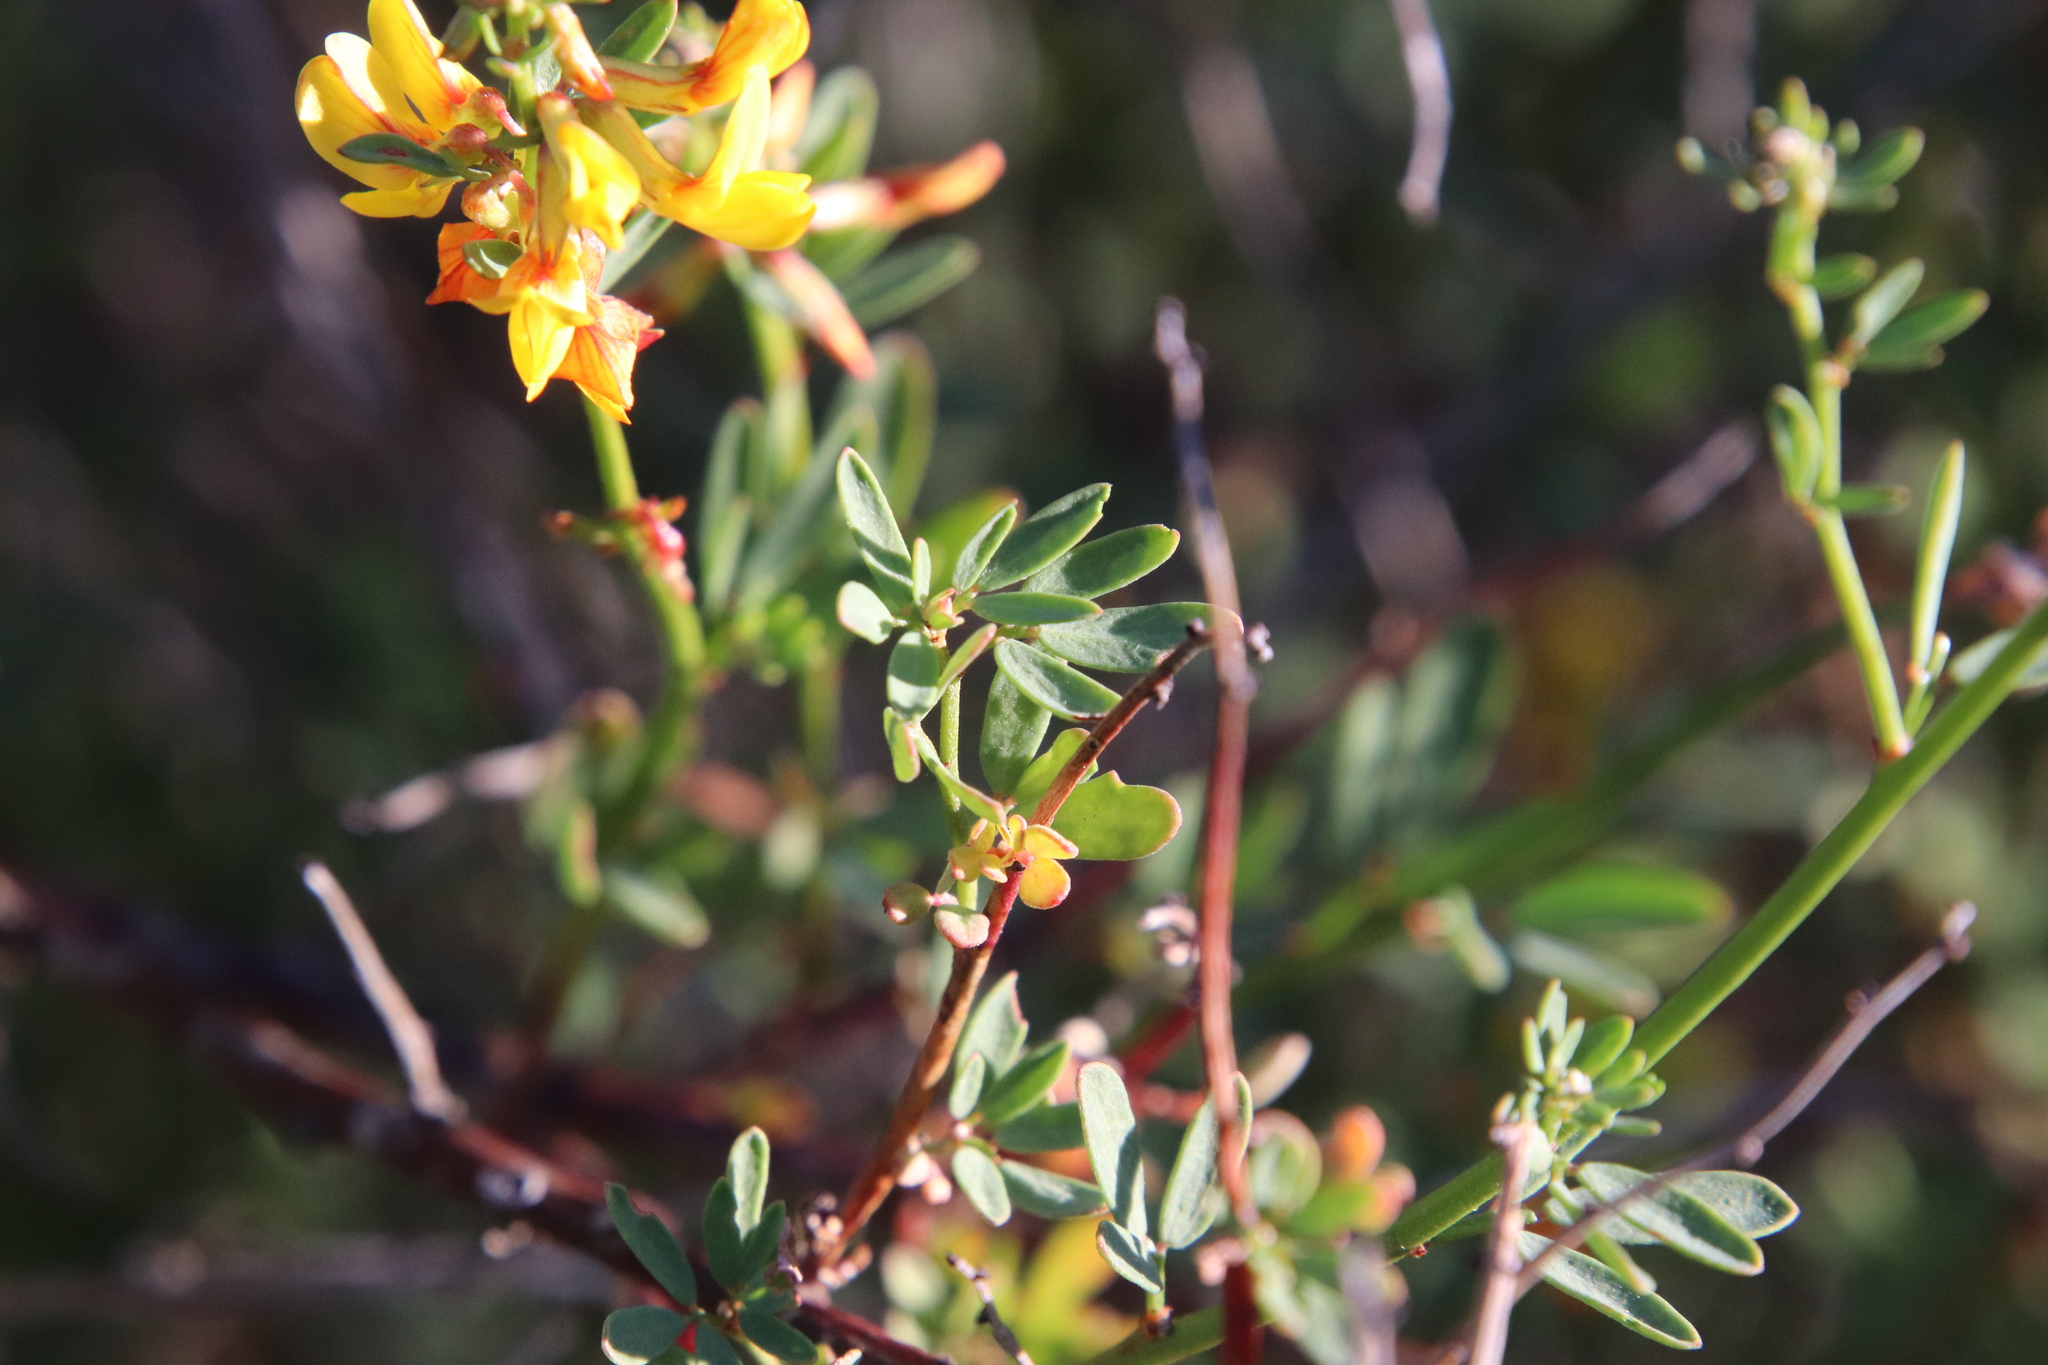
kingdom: Plantae
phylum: Tracheophyta
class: Magnoliopsida
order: Fabales
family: Fabaceae
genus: Acmispon
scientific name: Acmispon glaber
